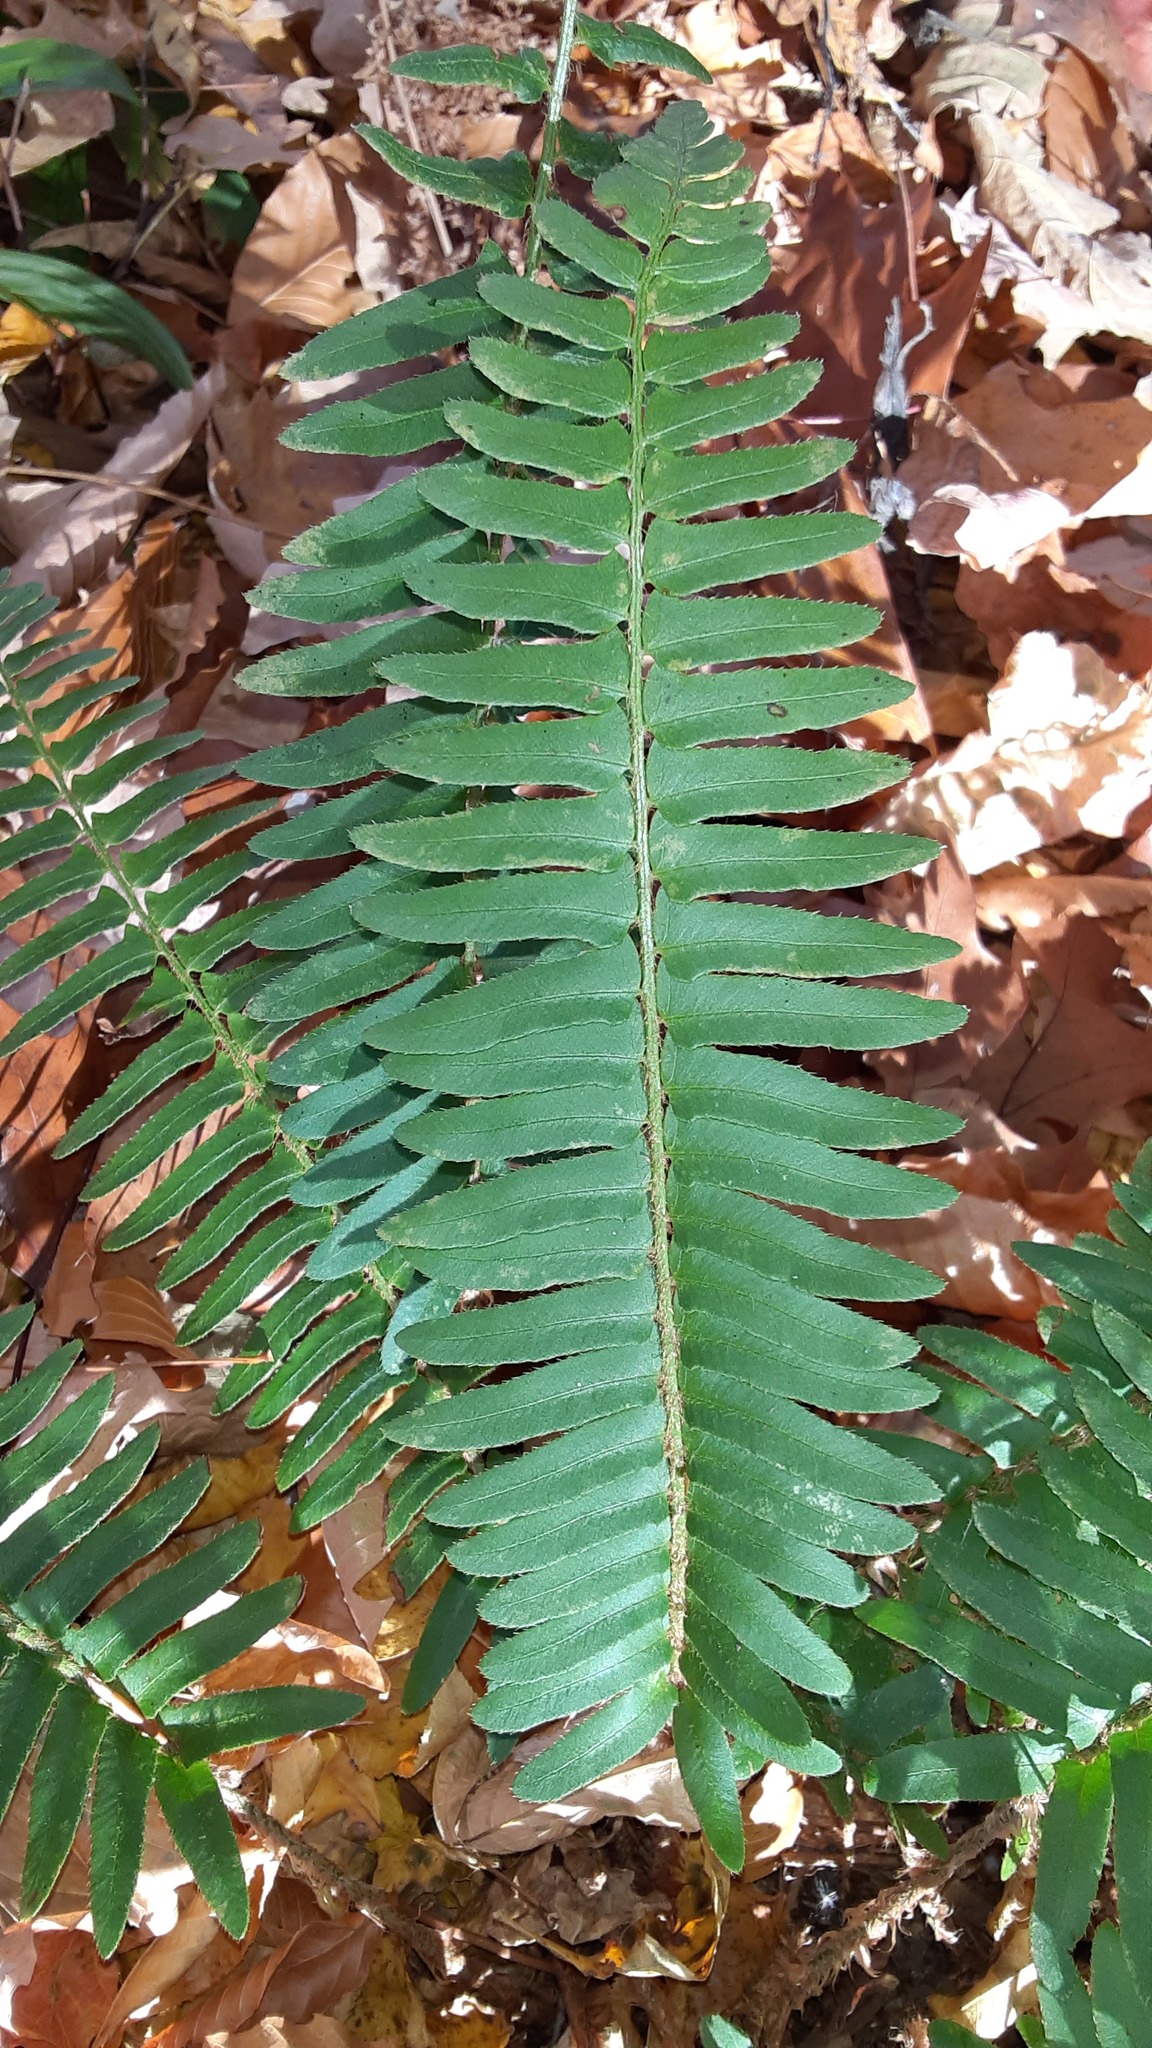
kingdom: Plantae
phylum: Tracheophyta
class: Polypodiopsida
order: Polypodiales
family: Dryopteridaceae
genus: Polystichum
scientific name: Polystichum acrostichoides
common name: Christmas fern
